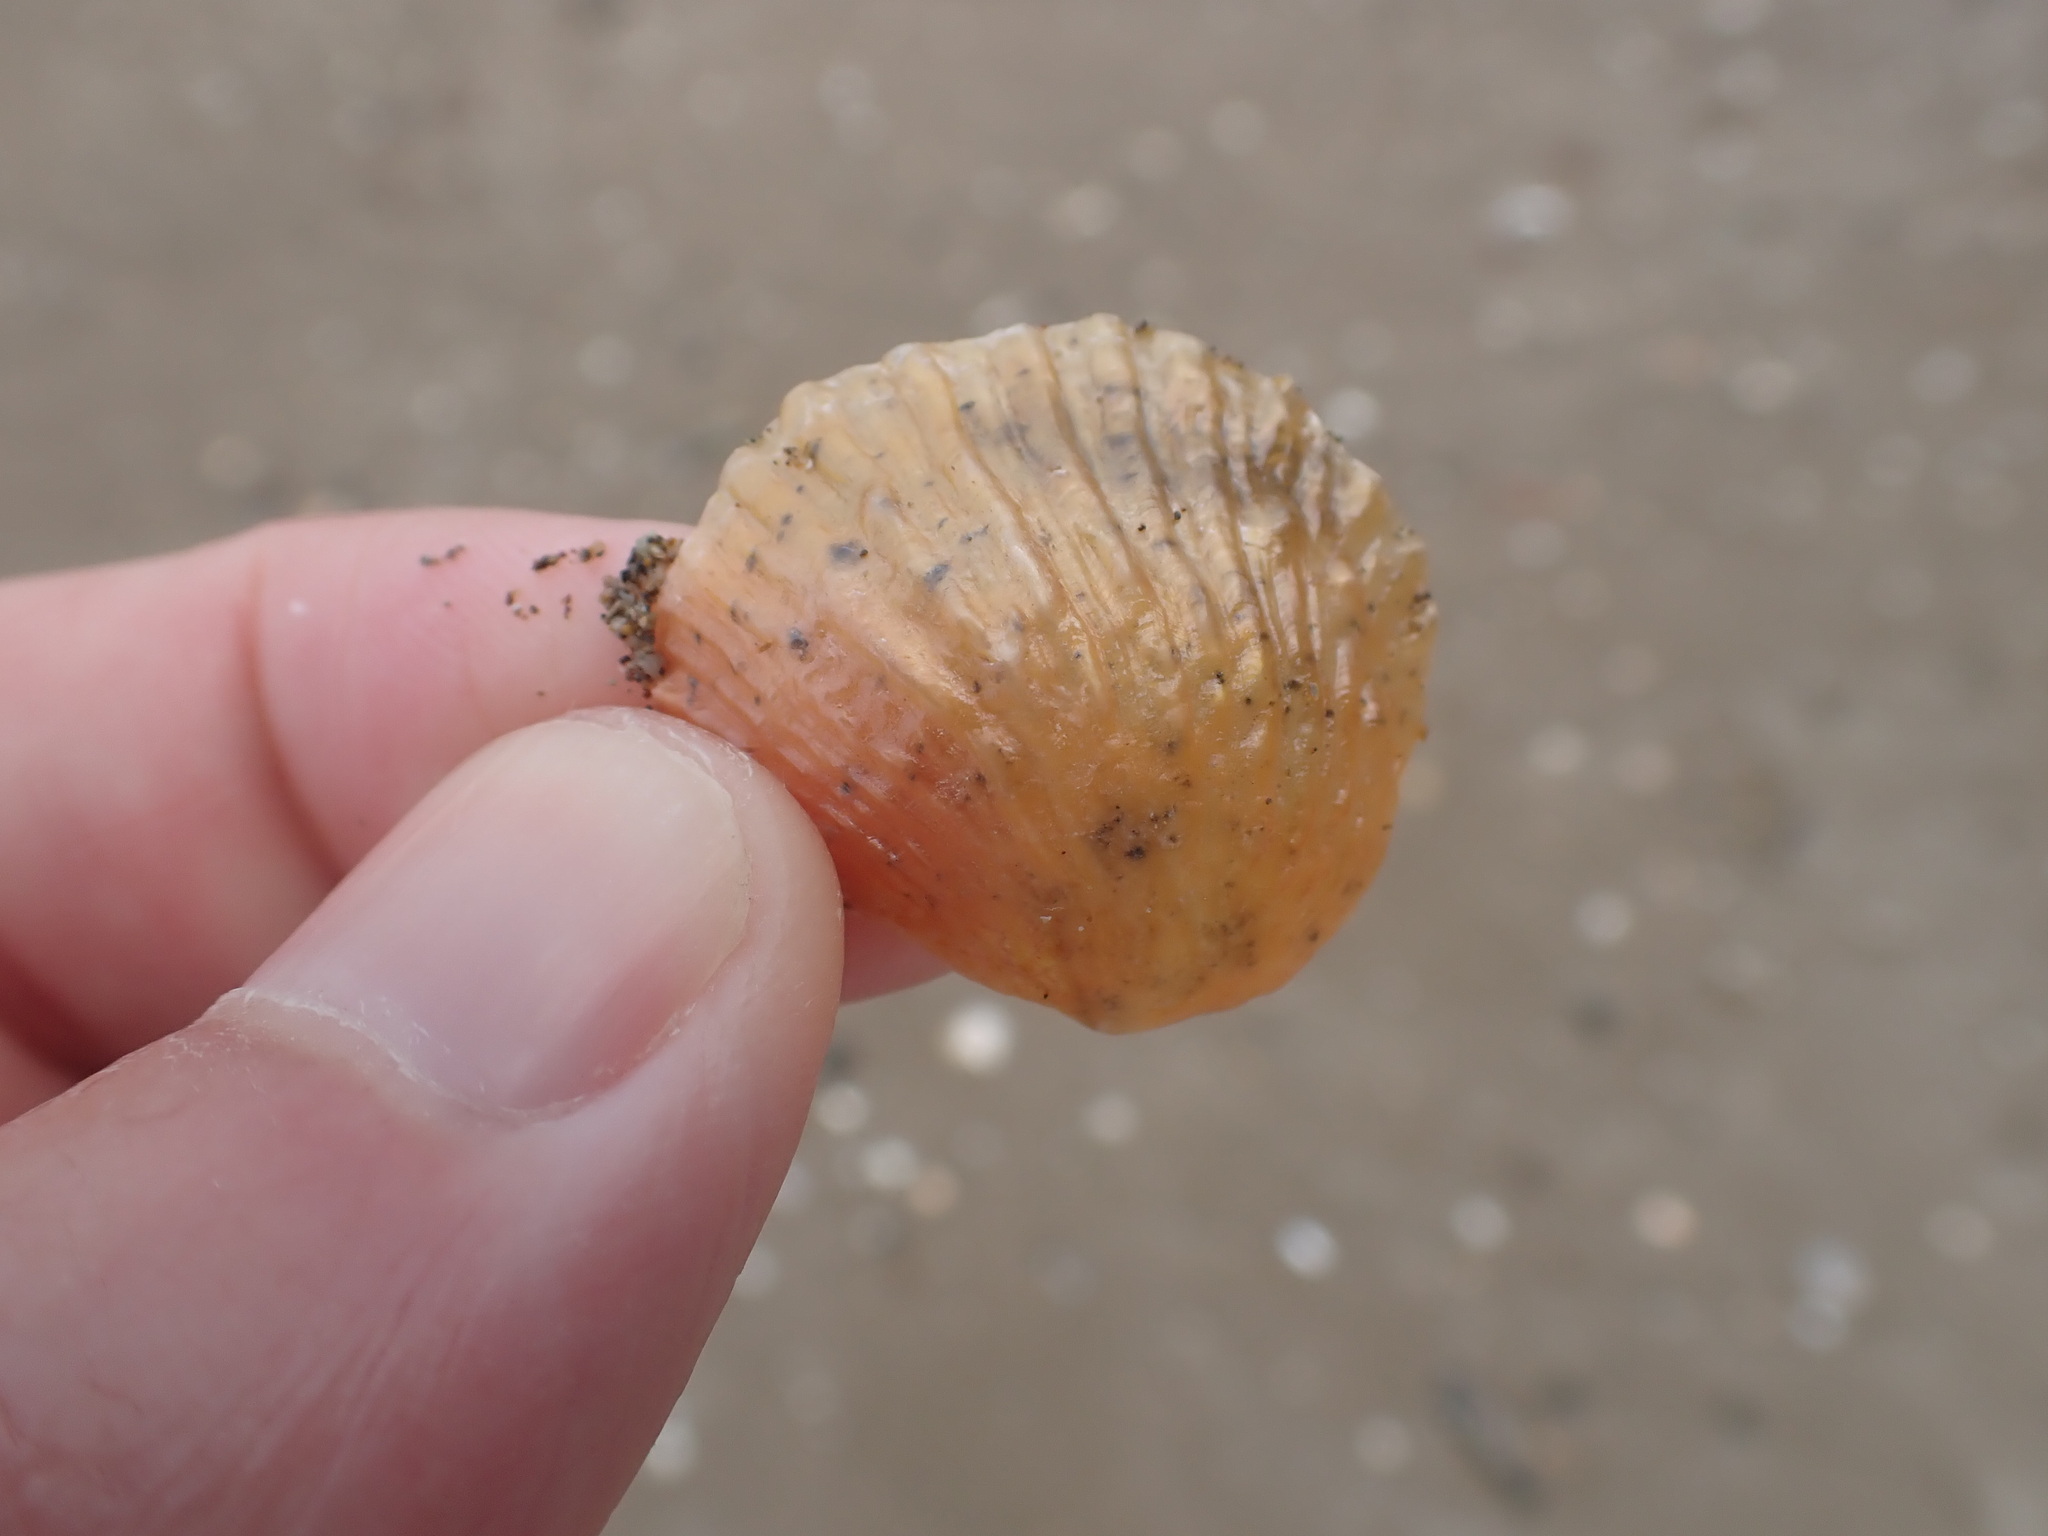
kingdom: Animalia
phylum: Mollusca
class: Bivalvia
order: Pectinida
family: Anomiidae
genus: Anomia
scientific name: Anomia trigonopsis
